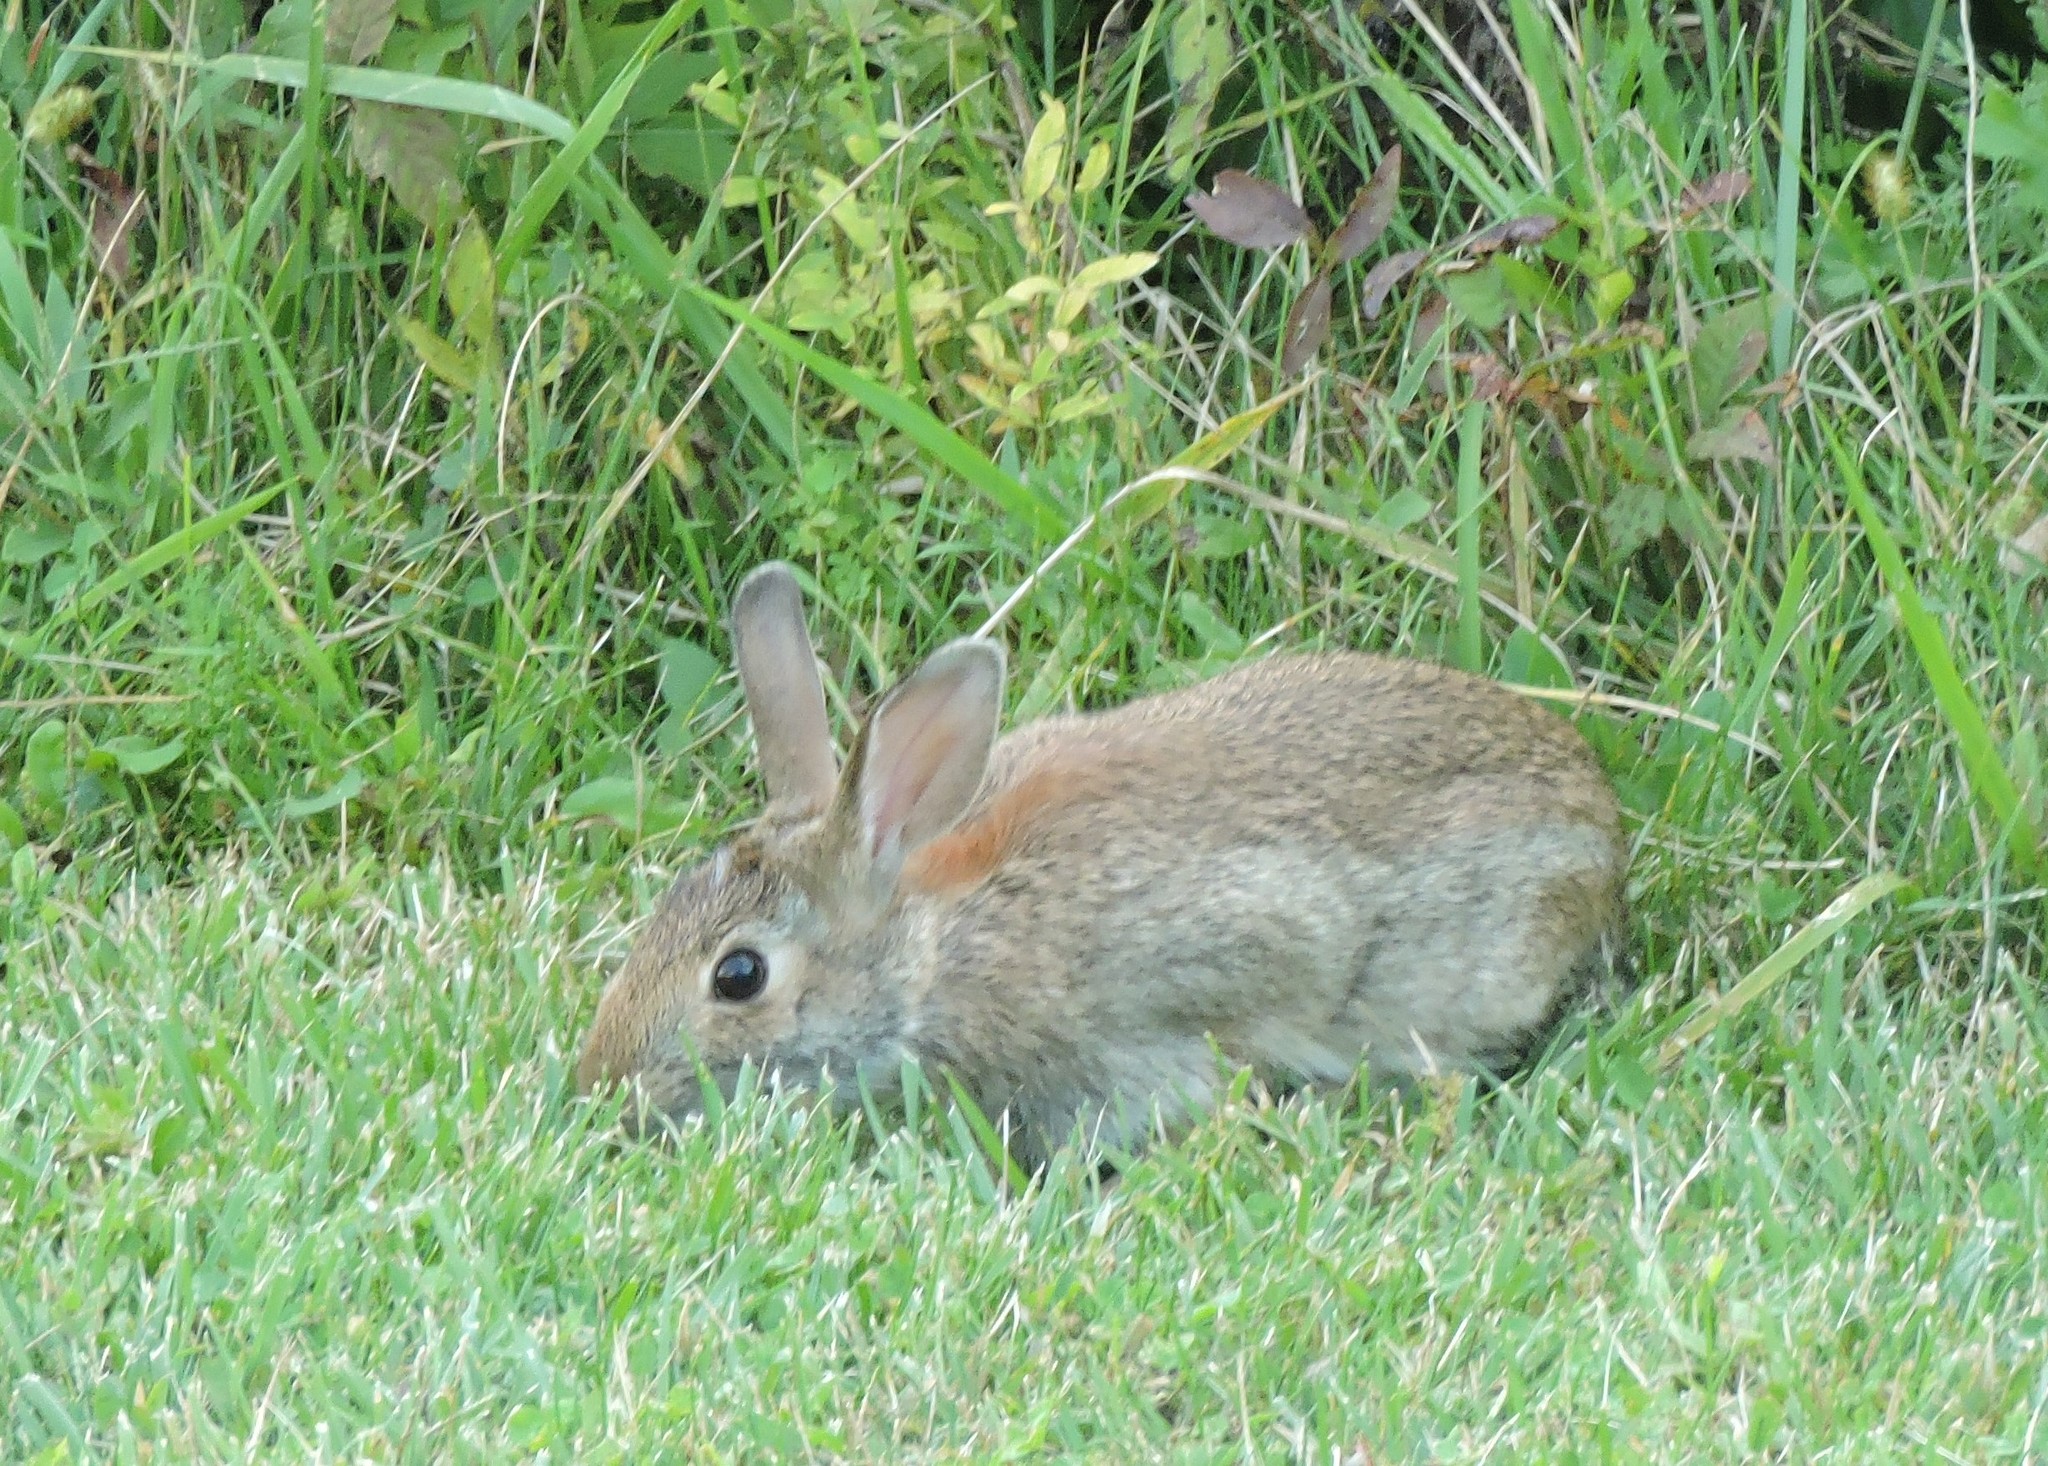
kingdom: Animalia
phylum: Chordata
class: Mammalia
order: Lagomorpha
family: Leporidae
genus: Sylvilagus
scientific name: Sylvilagus floridanus
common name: Eastern cottontail
